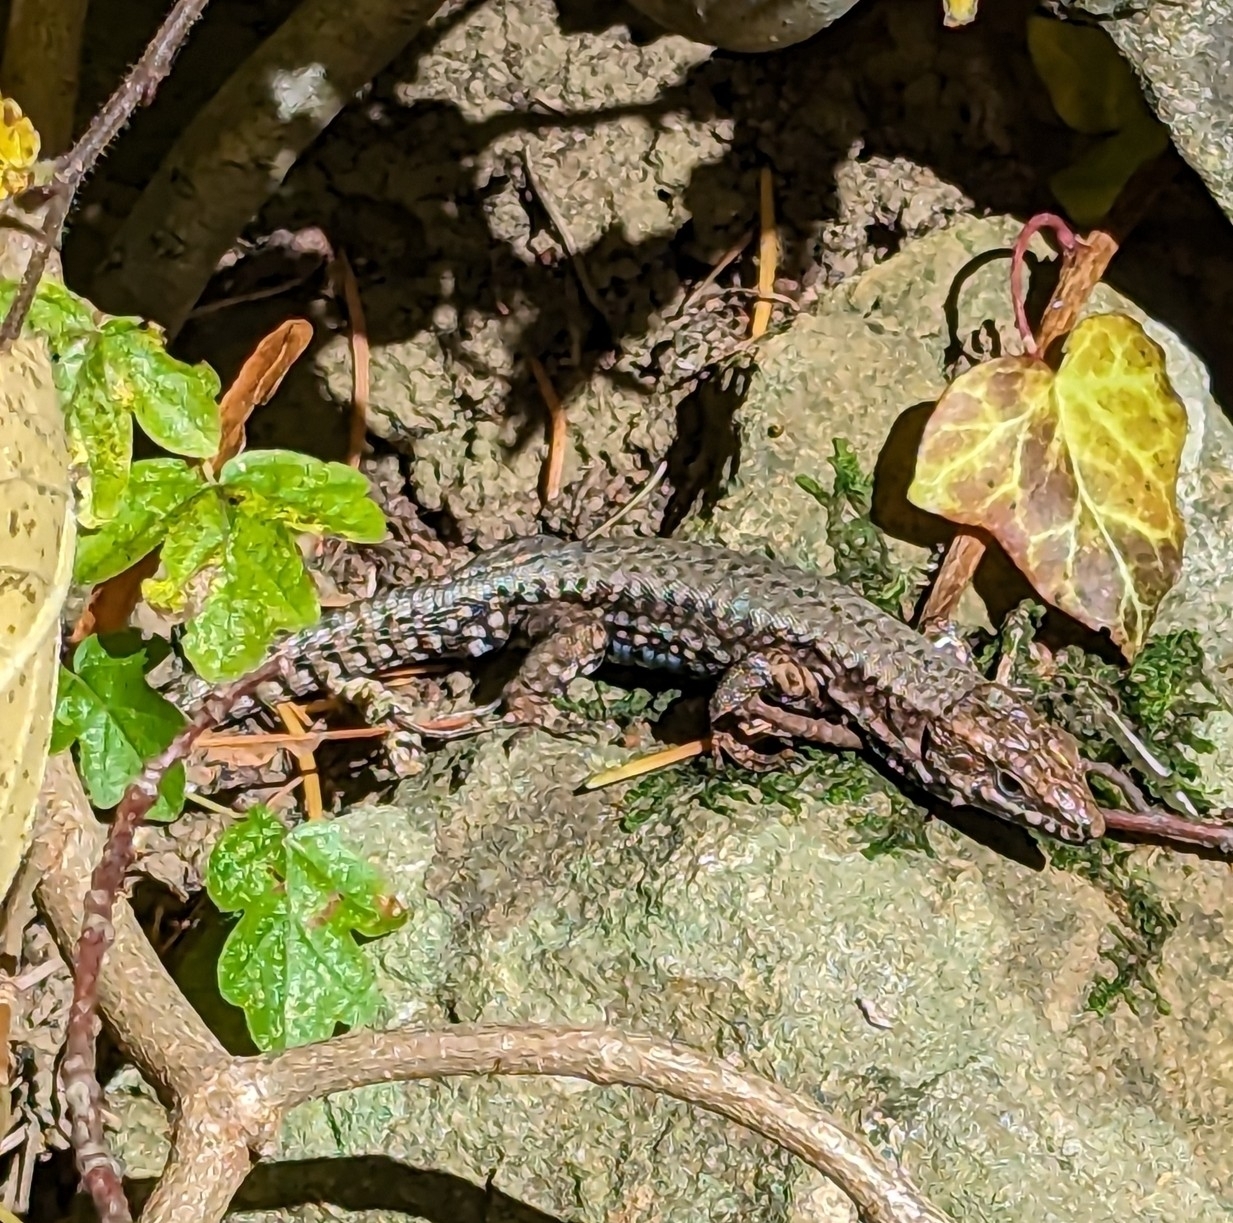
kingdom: Animalia
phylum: Chordata
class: Squamata
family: Lacertidae
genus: Podarcis
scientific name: Podarcis muralis
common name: Common wall lizard
